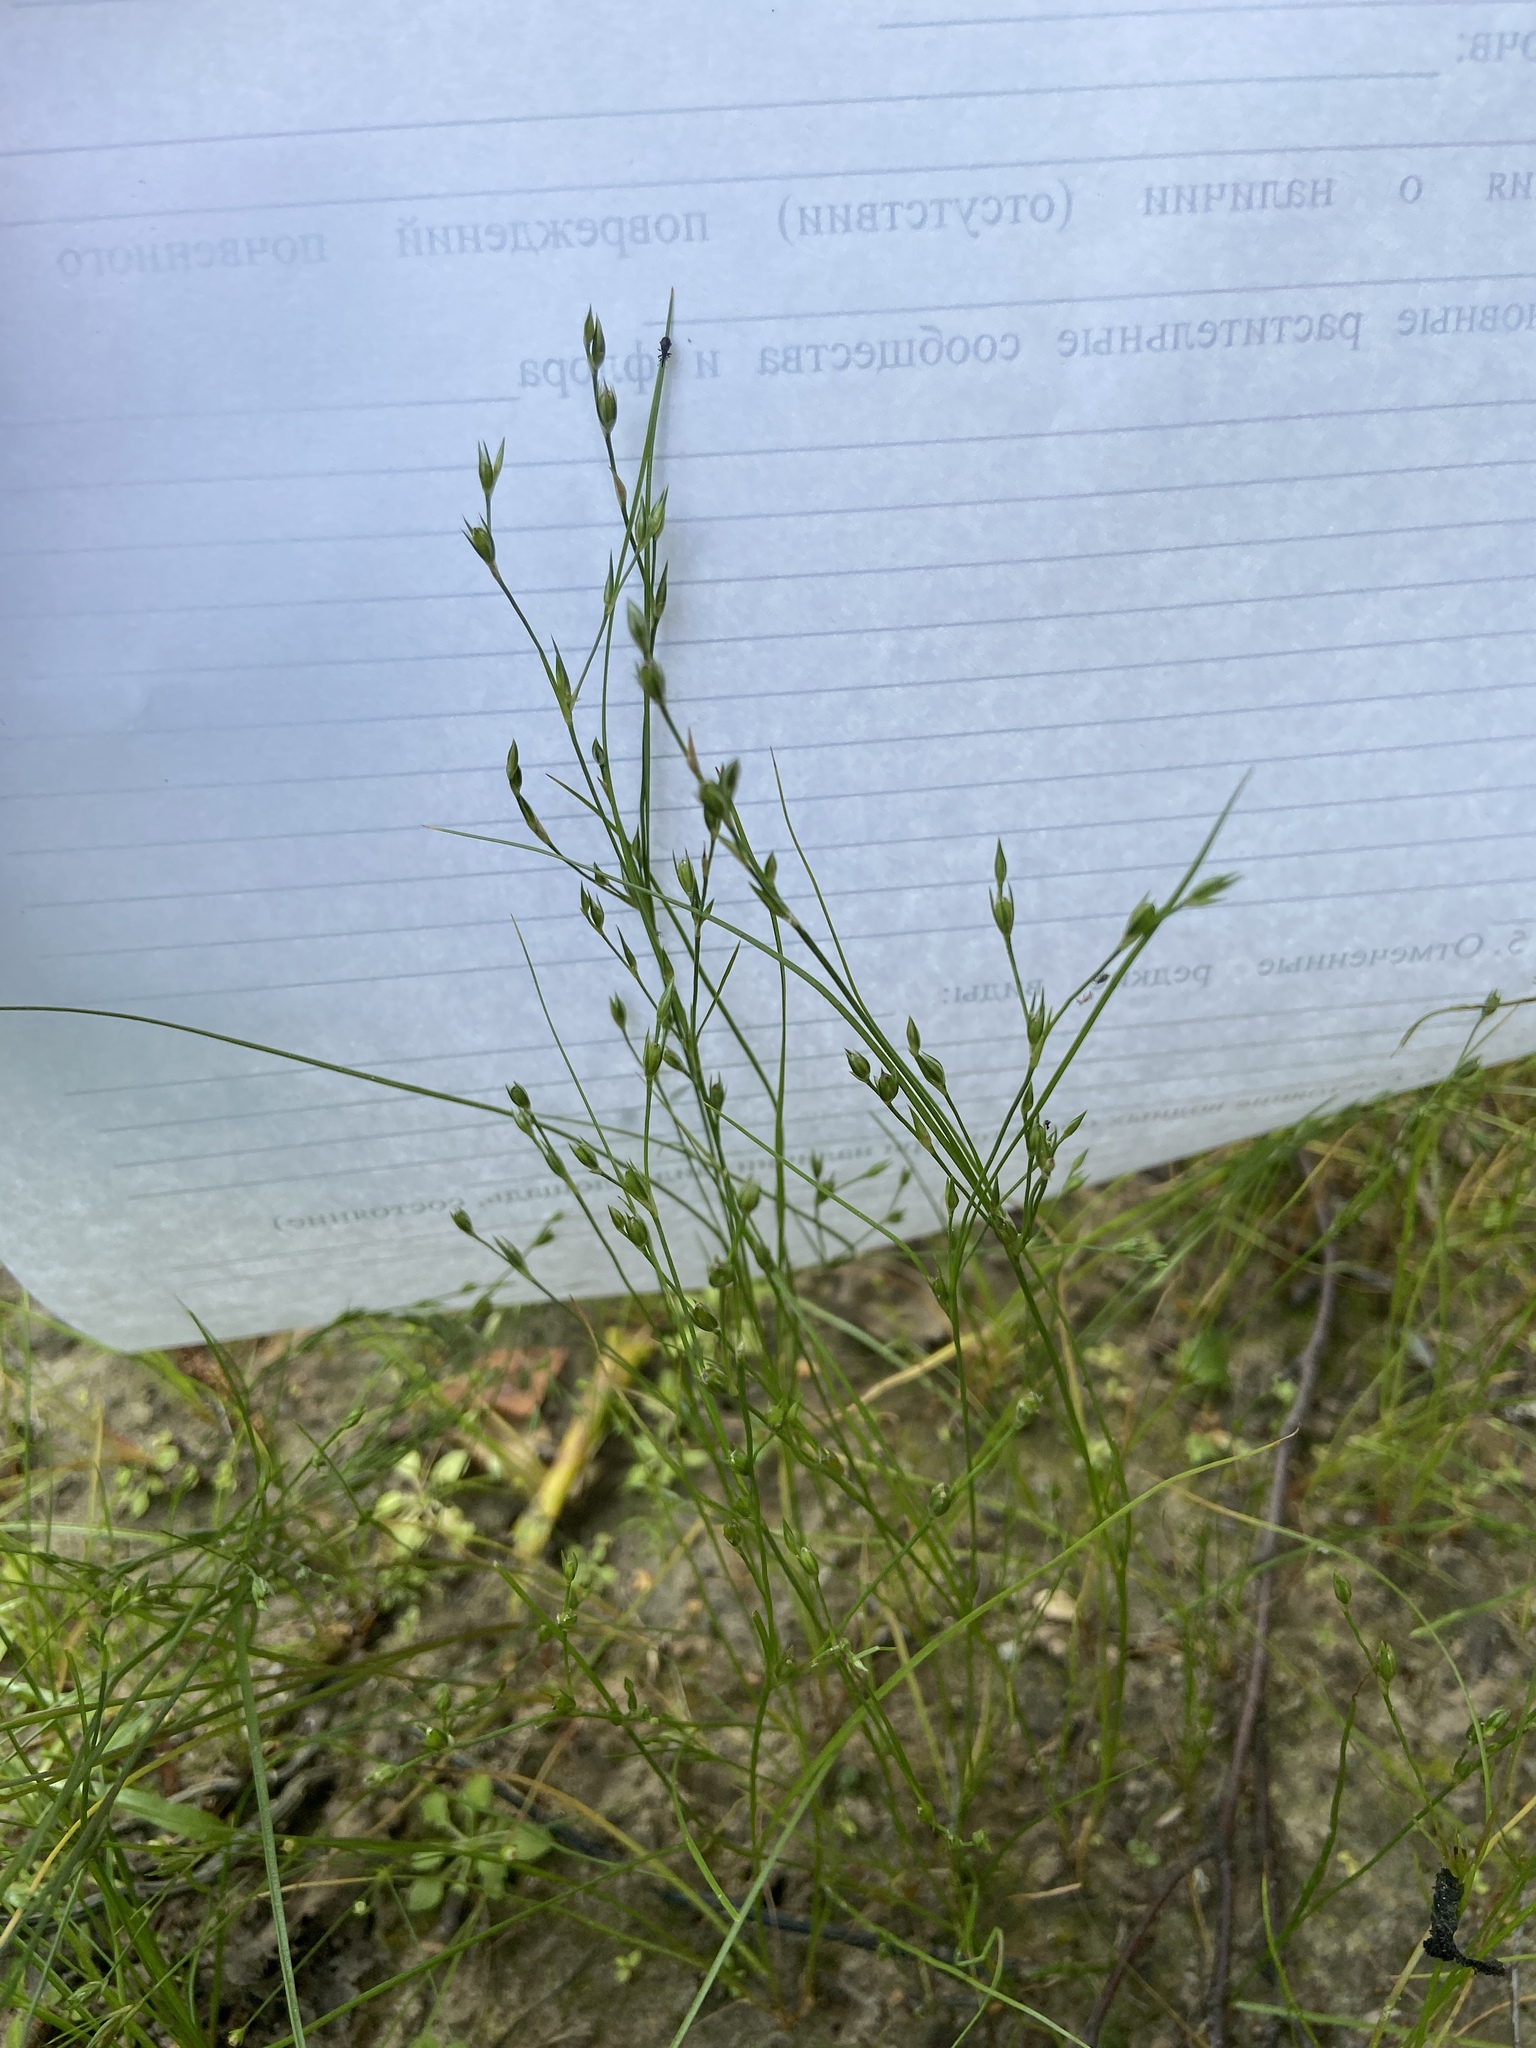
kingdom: Plantae
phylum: Tracheophyta
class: Liliopsida
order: Poales
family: Juncaceae
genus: Juncus
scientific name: Juncus bufonius
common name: Toad rush
